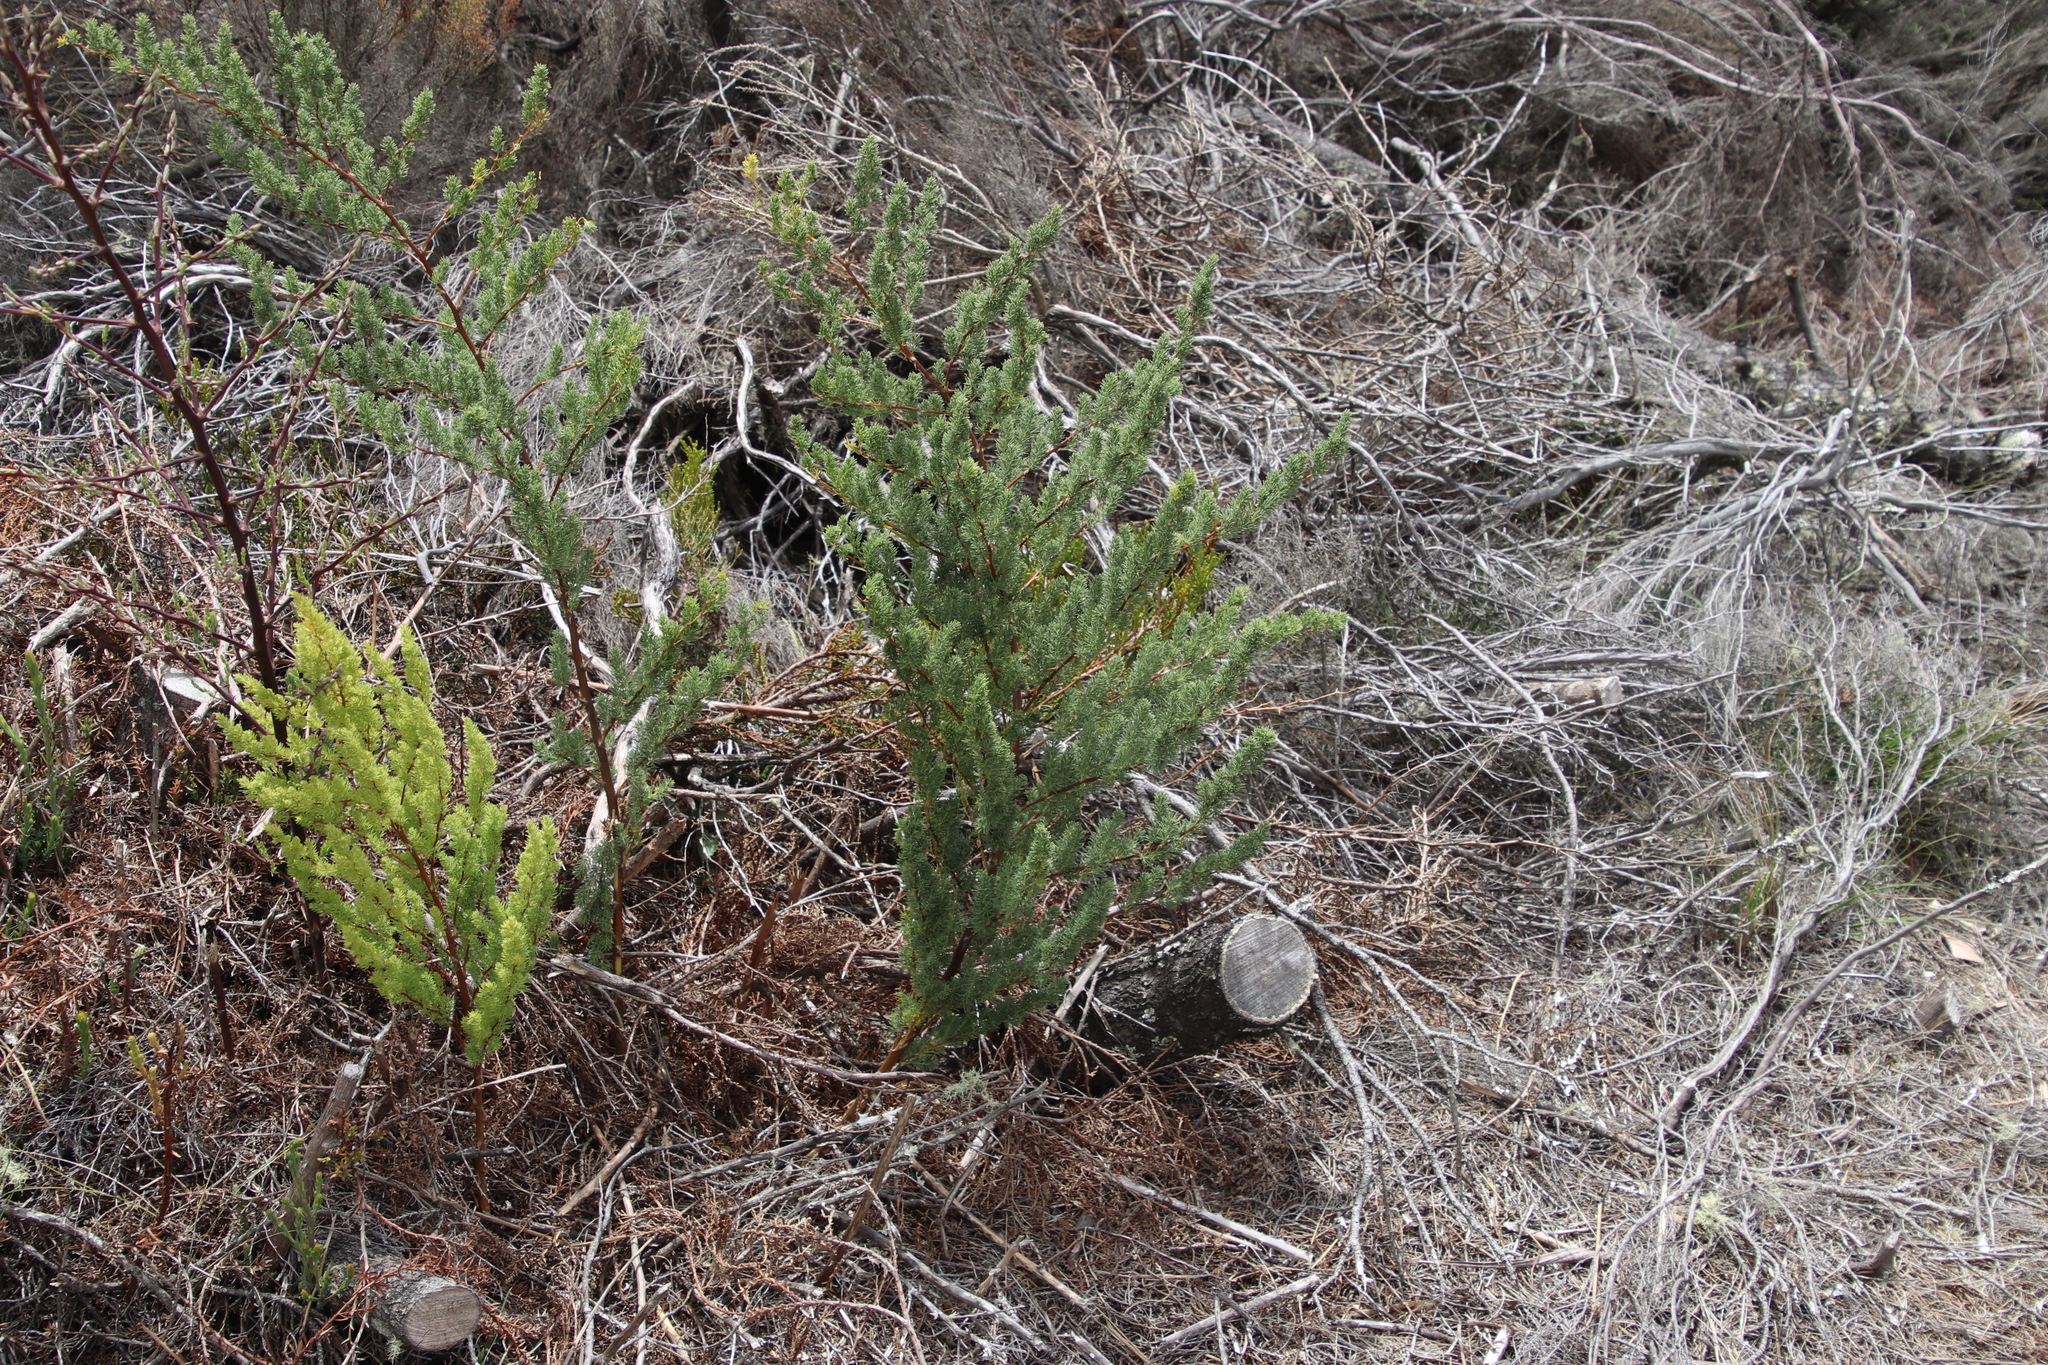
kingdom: Plantae
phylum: Tracheophyta
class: Liliopsida
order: Asparagales
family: Asparagaceae
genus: Asparagus
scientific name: Asparagus rubicundus
